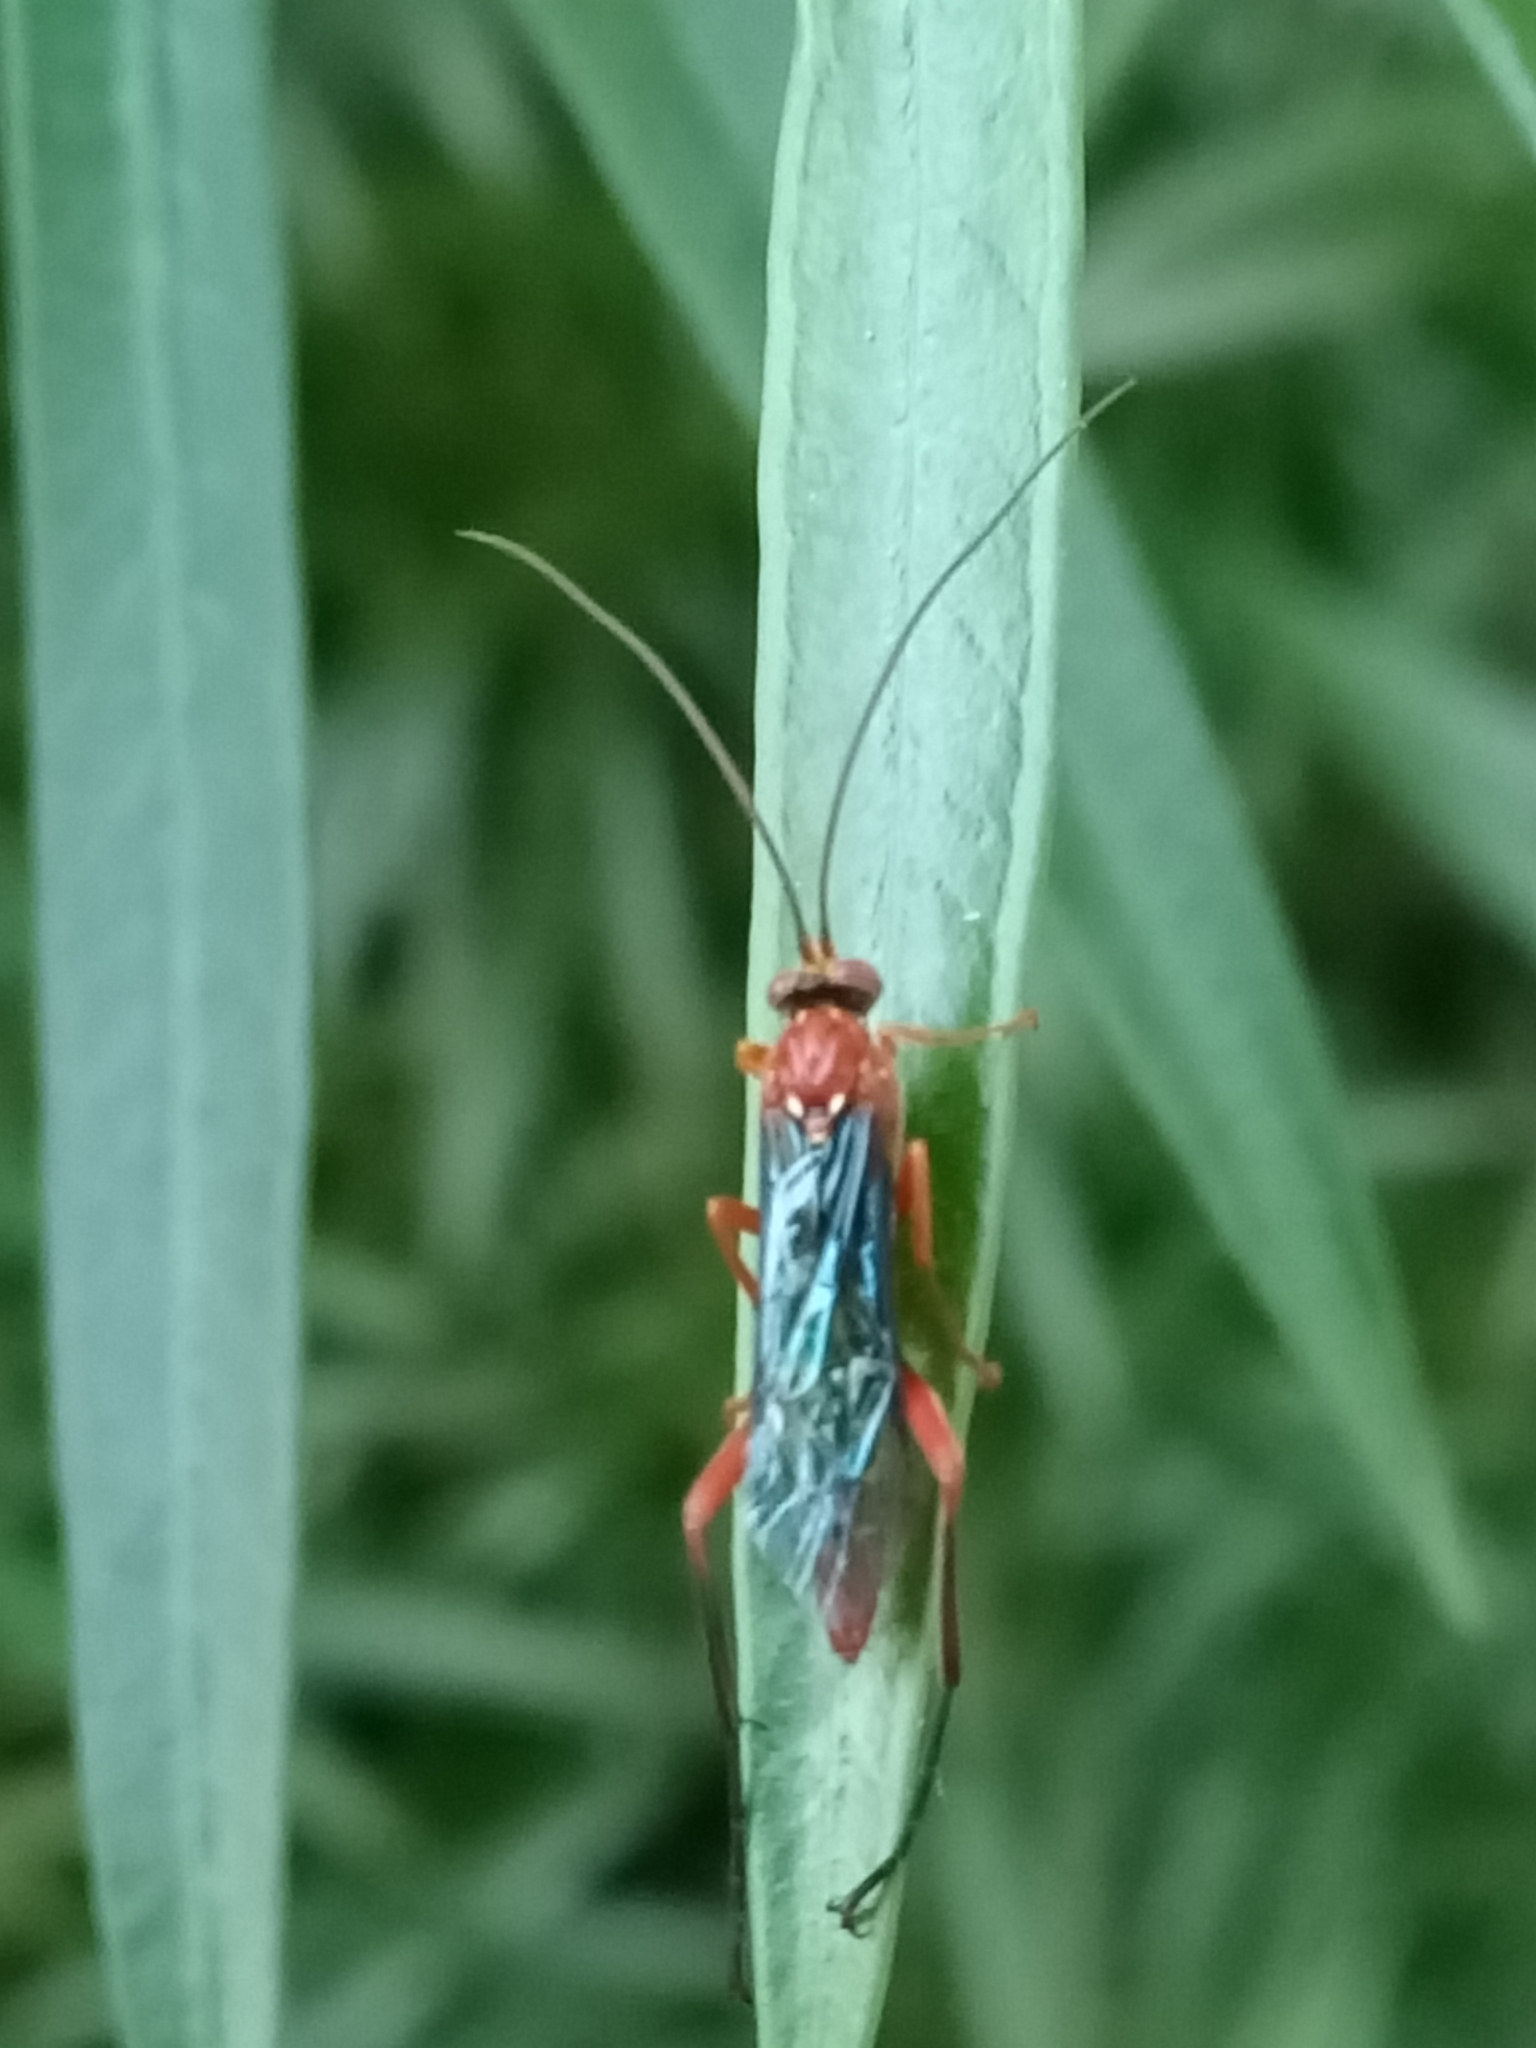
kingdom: Animalia
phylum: Arthropoda
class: Insecta
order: Hymenoptera
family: Ichneumonidae
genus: Lissopimpla
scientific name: Lissopimpla excelsa
